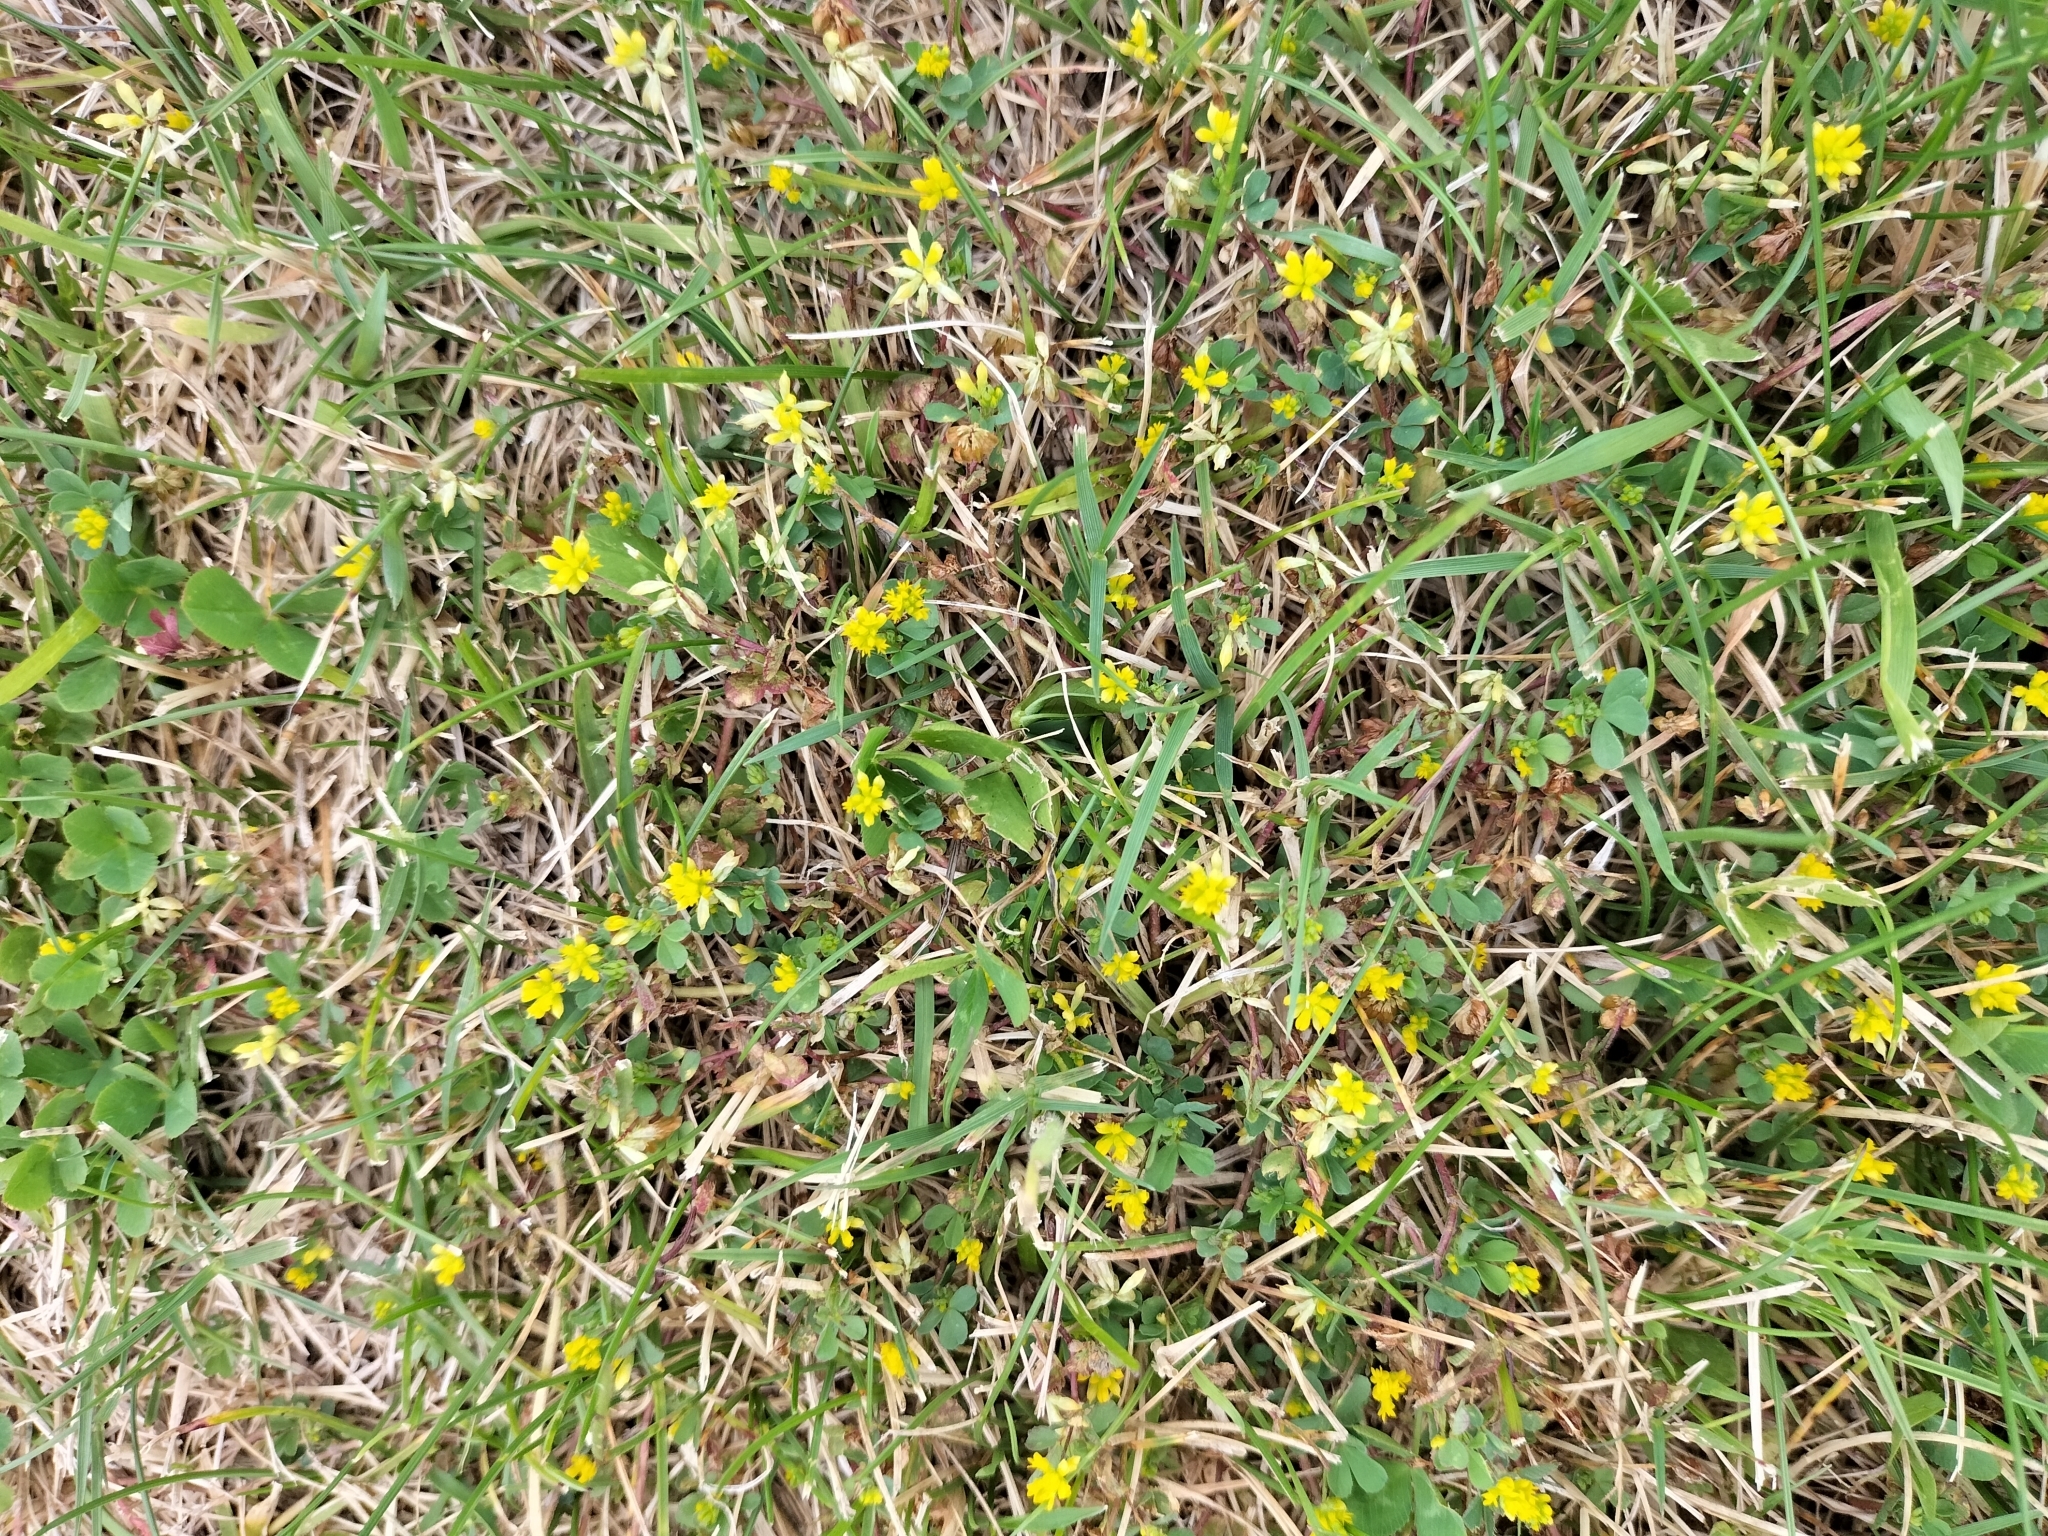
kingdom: Plantae
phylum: Tracheophyta
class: Magnoliopsida
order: Fabales
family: Fabaceae
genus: Trifolium
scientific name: Trifolium dubium
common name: Suckling clover
